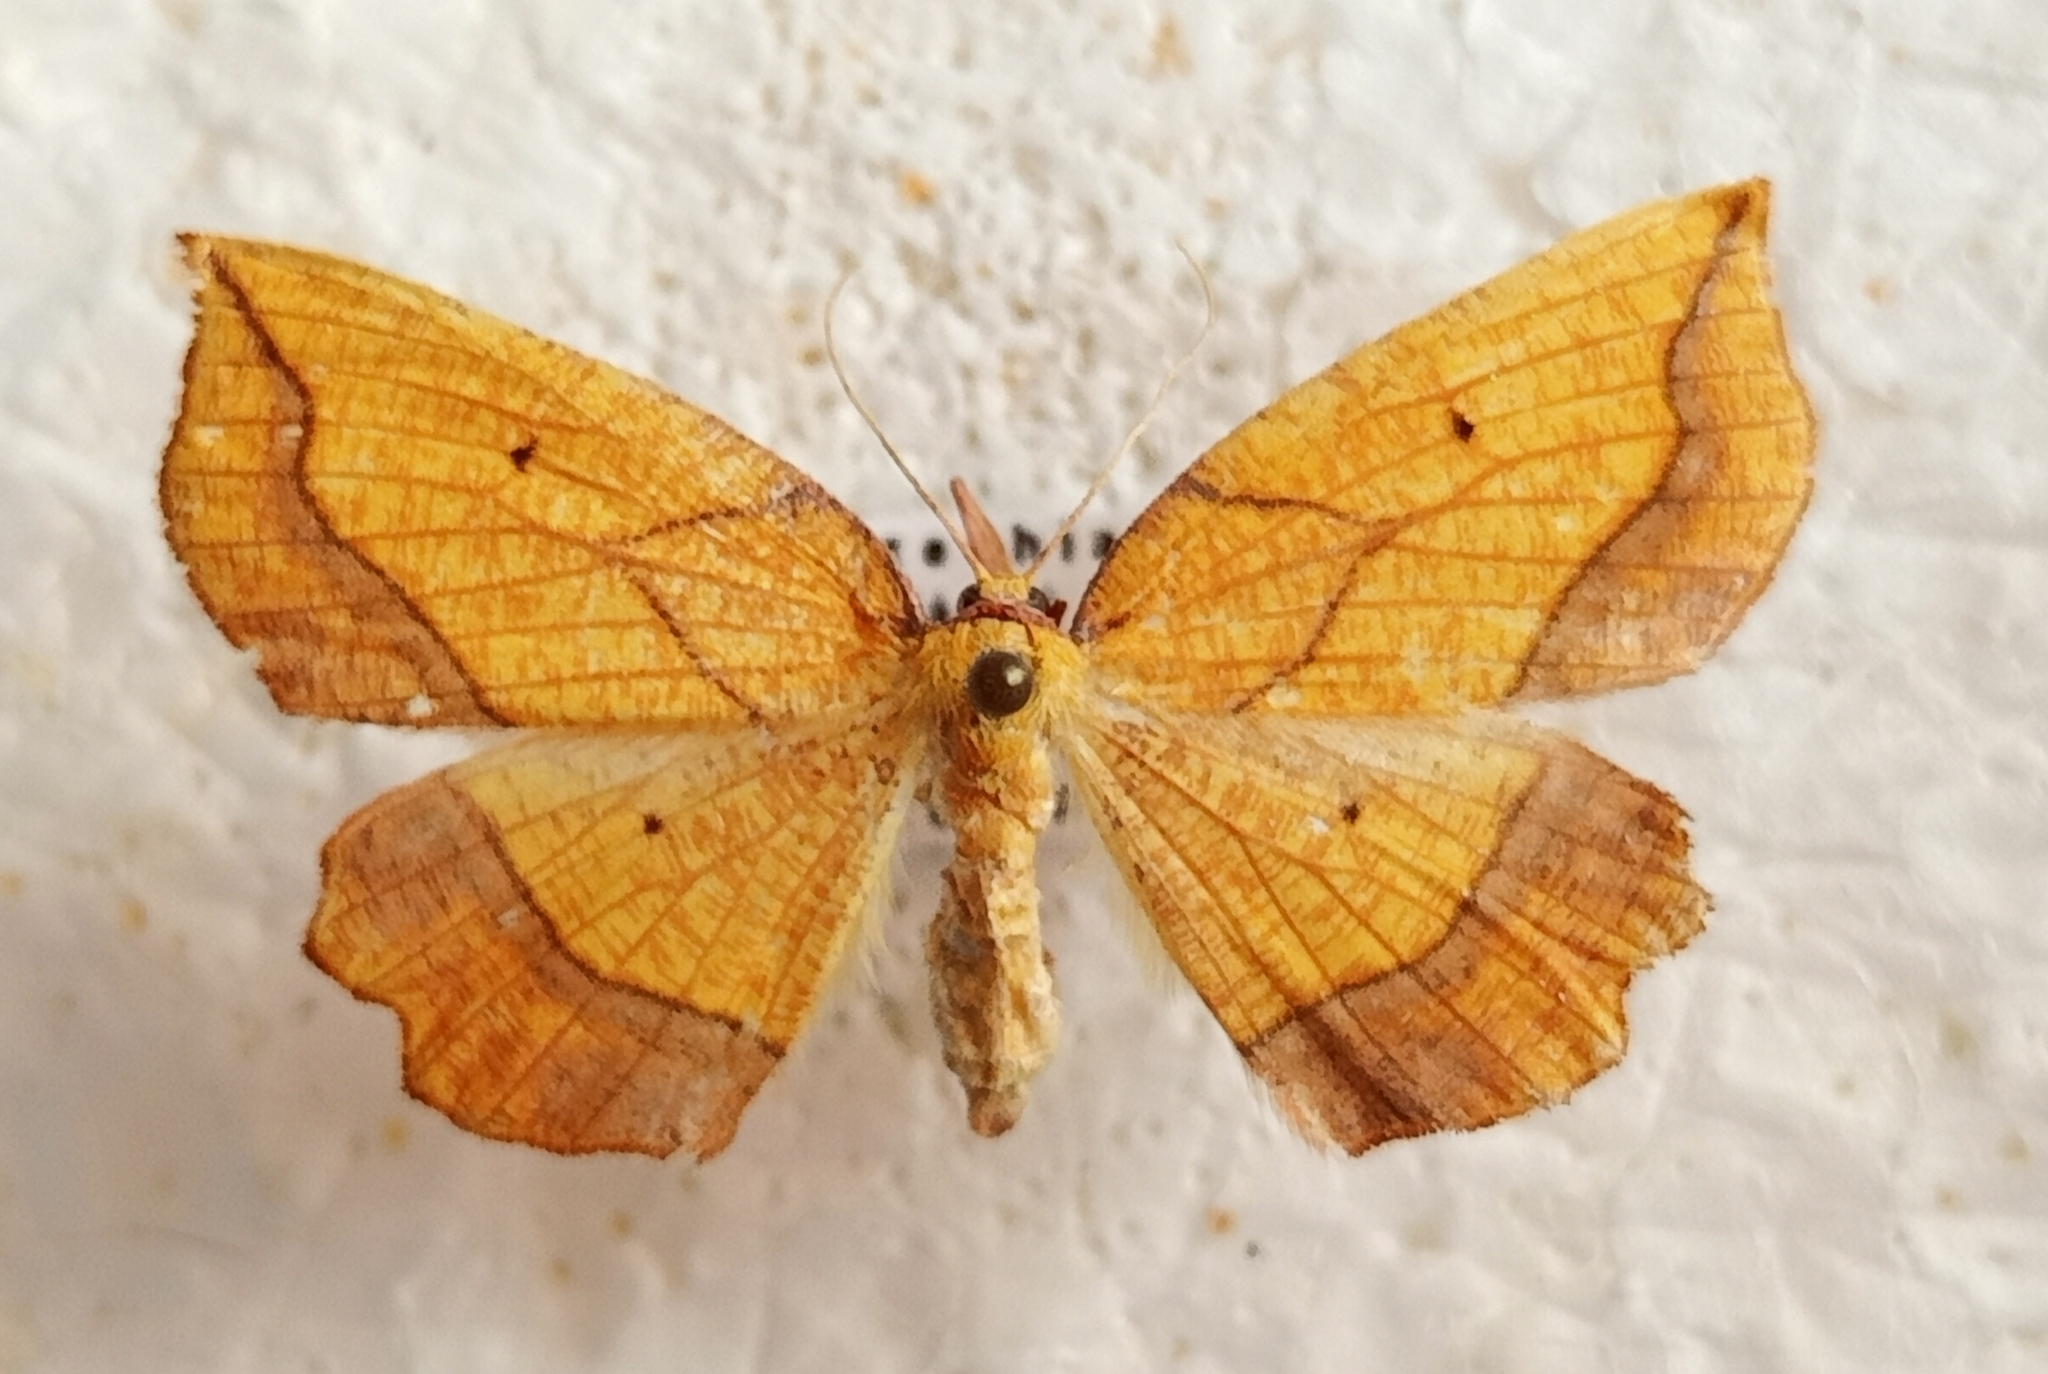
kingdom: Animalia
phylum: Arthropoda
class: Insecta
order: Lepidoptera
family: Geometridae
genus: Epione
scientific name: Epione repandaria
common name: Bordered beauty
